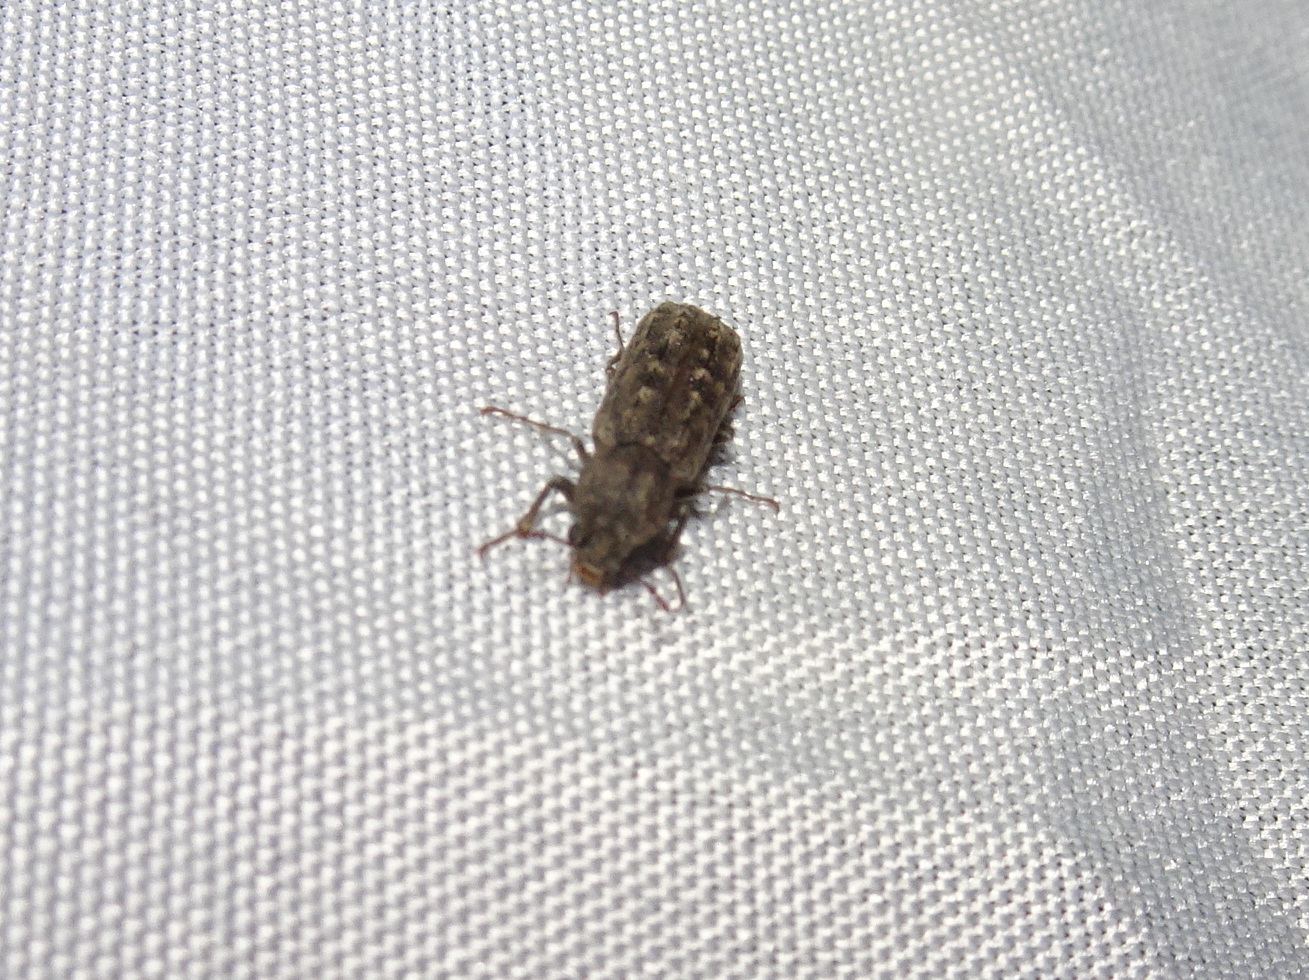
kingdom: Animalia
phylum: Arthropoda
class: Insecta
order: Coleoptera
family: Bostrichidae
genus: Lichenophanes
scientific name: Lichenophanes bicornis
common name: Two-horned powder-post beetle
